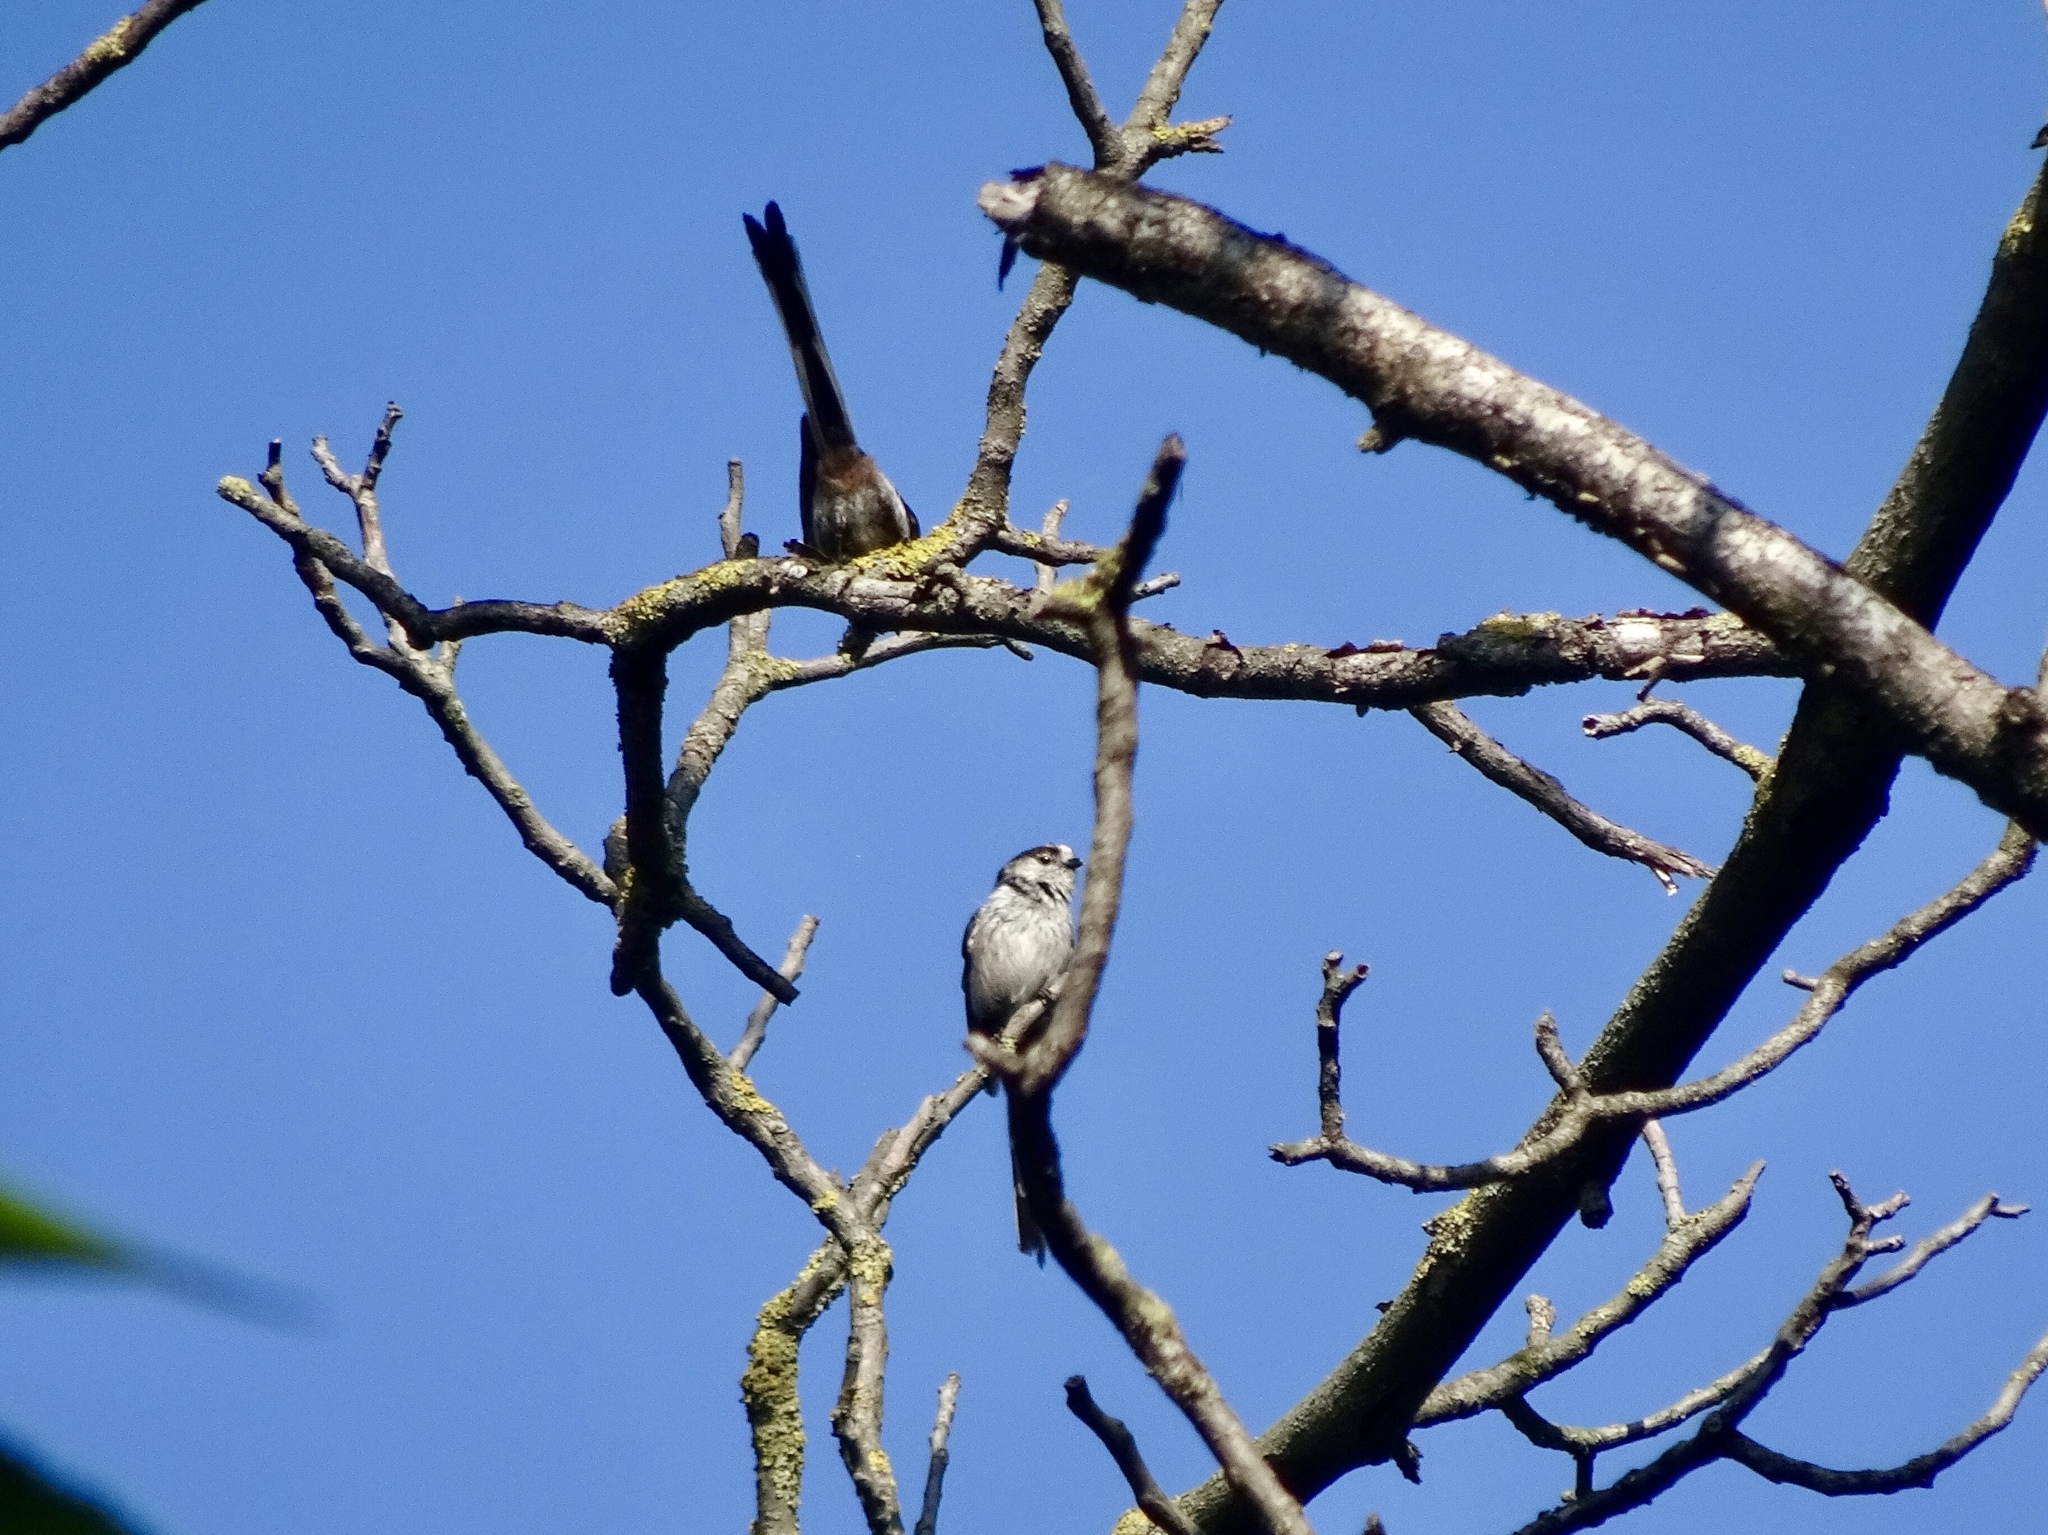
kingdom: Animalia
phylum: Chordata
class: Aves
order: Passeriformes
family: Aegithalidae
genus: Aegithalos
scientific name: Aegithalos caudatus
